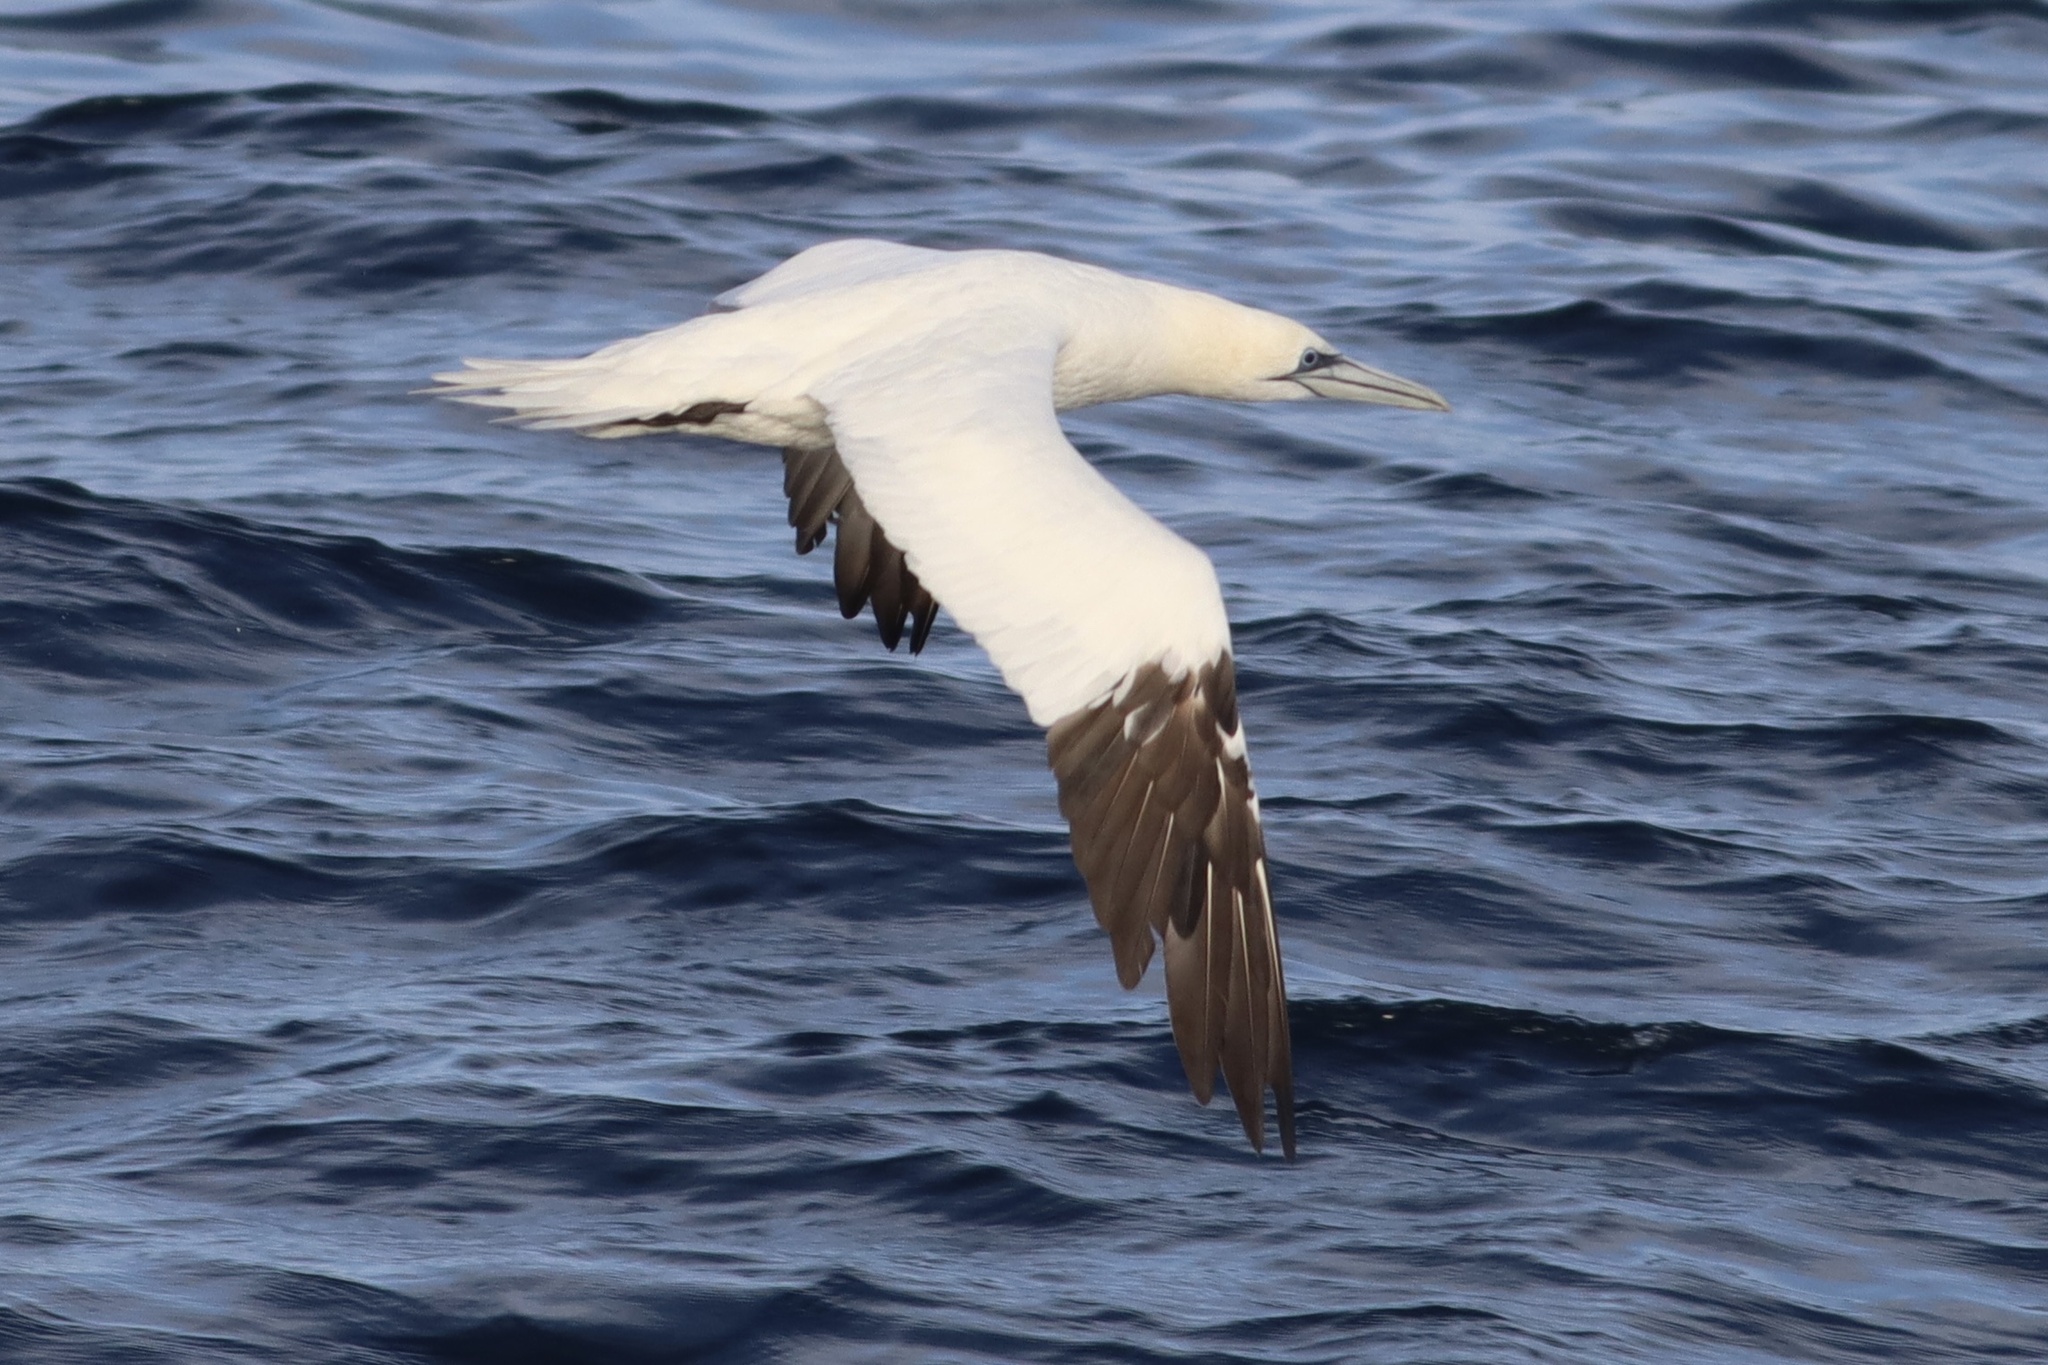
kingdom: Animalia
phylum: Chordata
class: Aves
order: Suliformes
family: Sulidae
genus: Morus
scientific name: Morus bassanus
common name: Northern gannet
